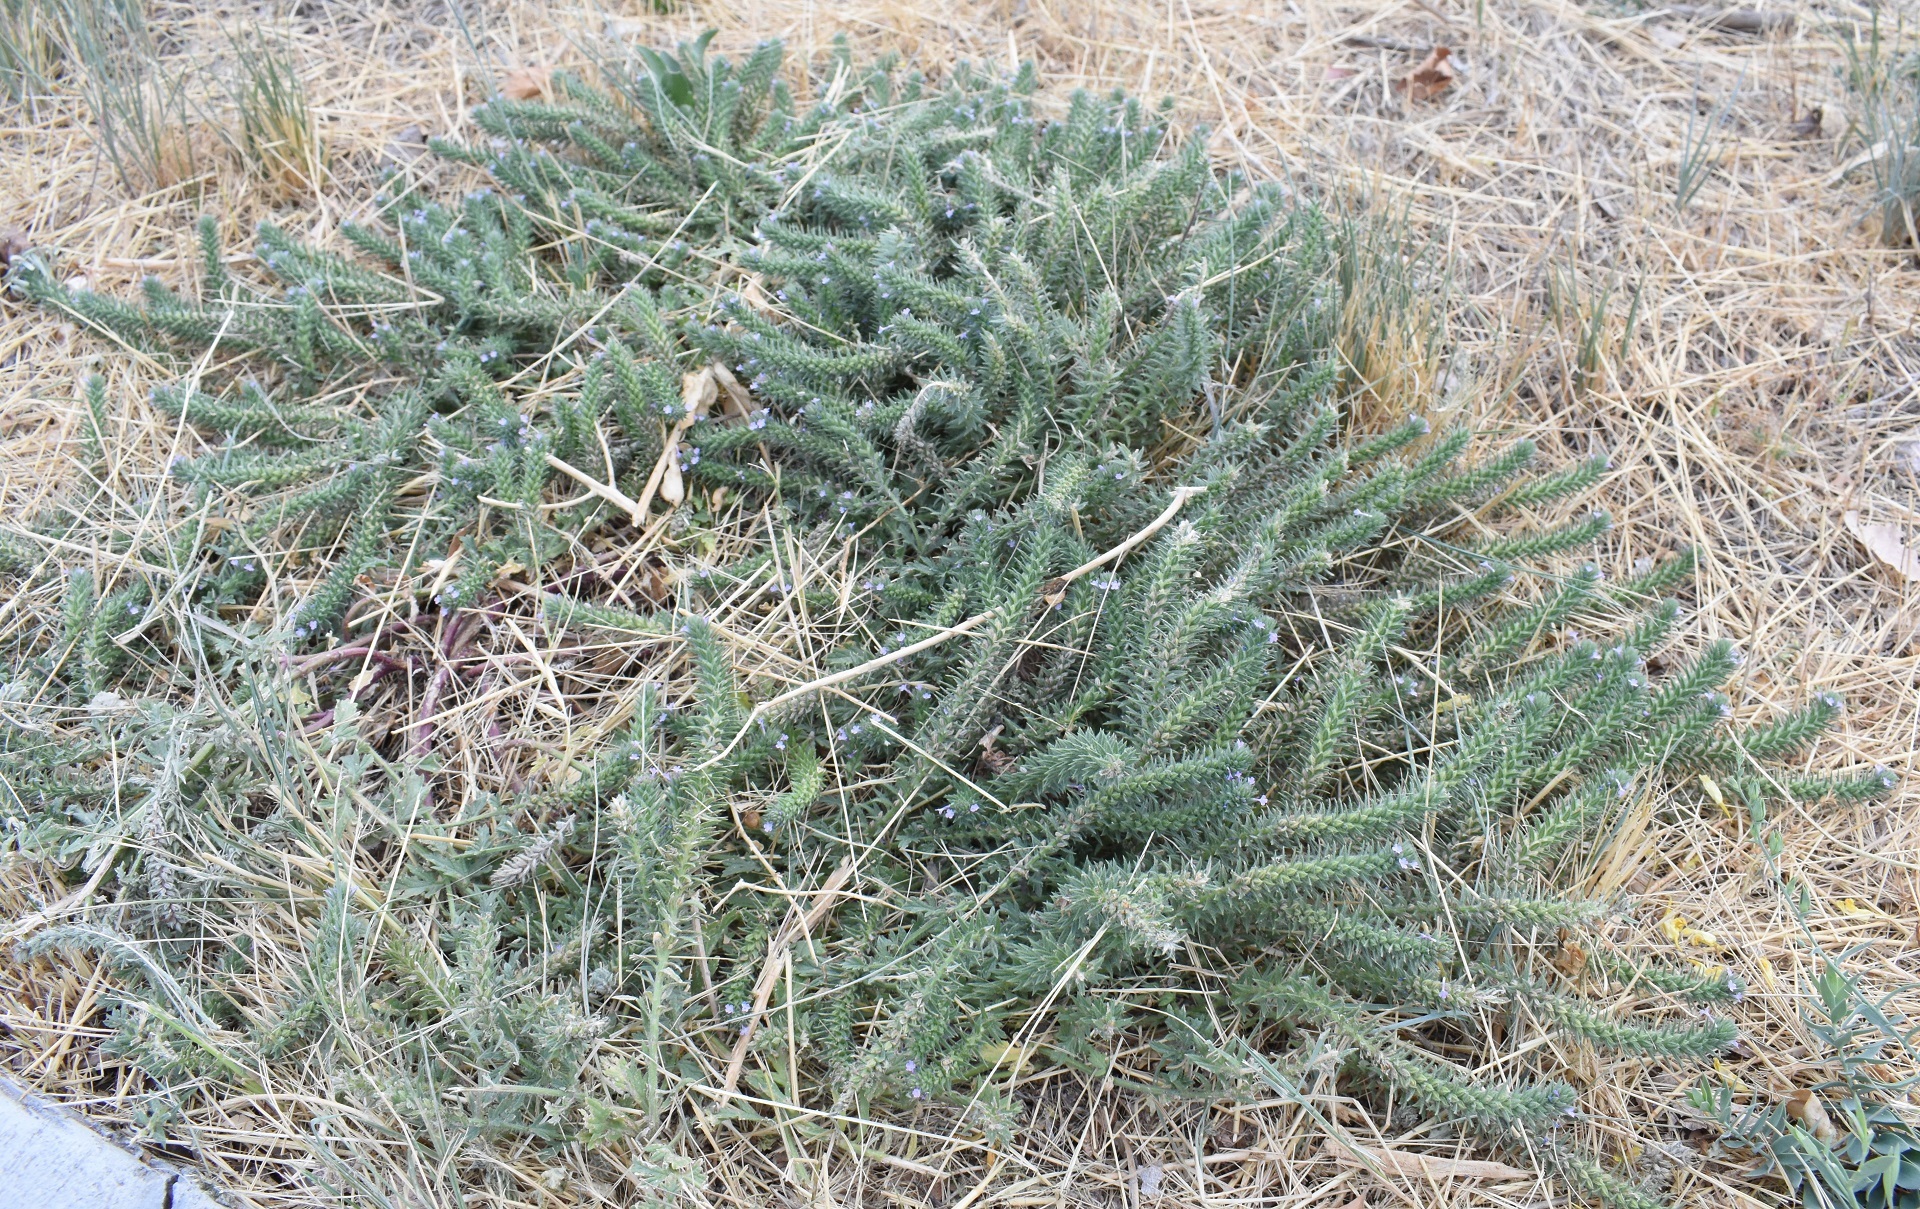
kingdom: Plantae
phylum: Tracheophyta
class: Magnoliopsida
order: Lamiales
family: Verbenaceae
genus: Verbena
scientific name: Verbena bracteata
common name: Bracted vervain
